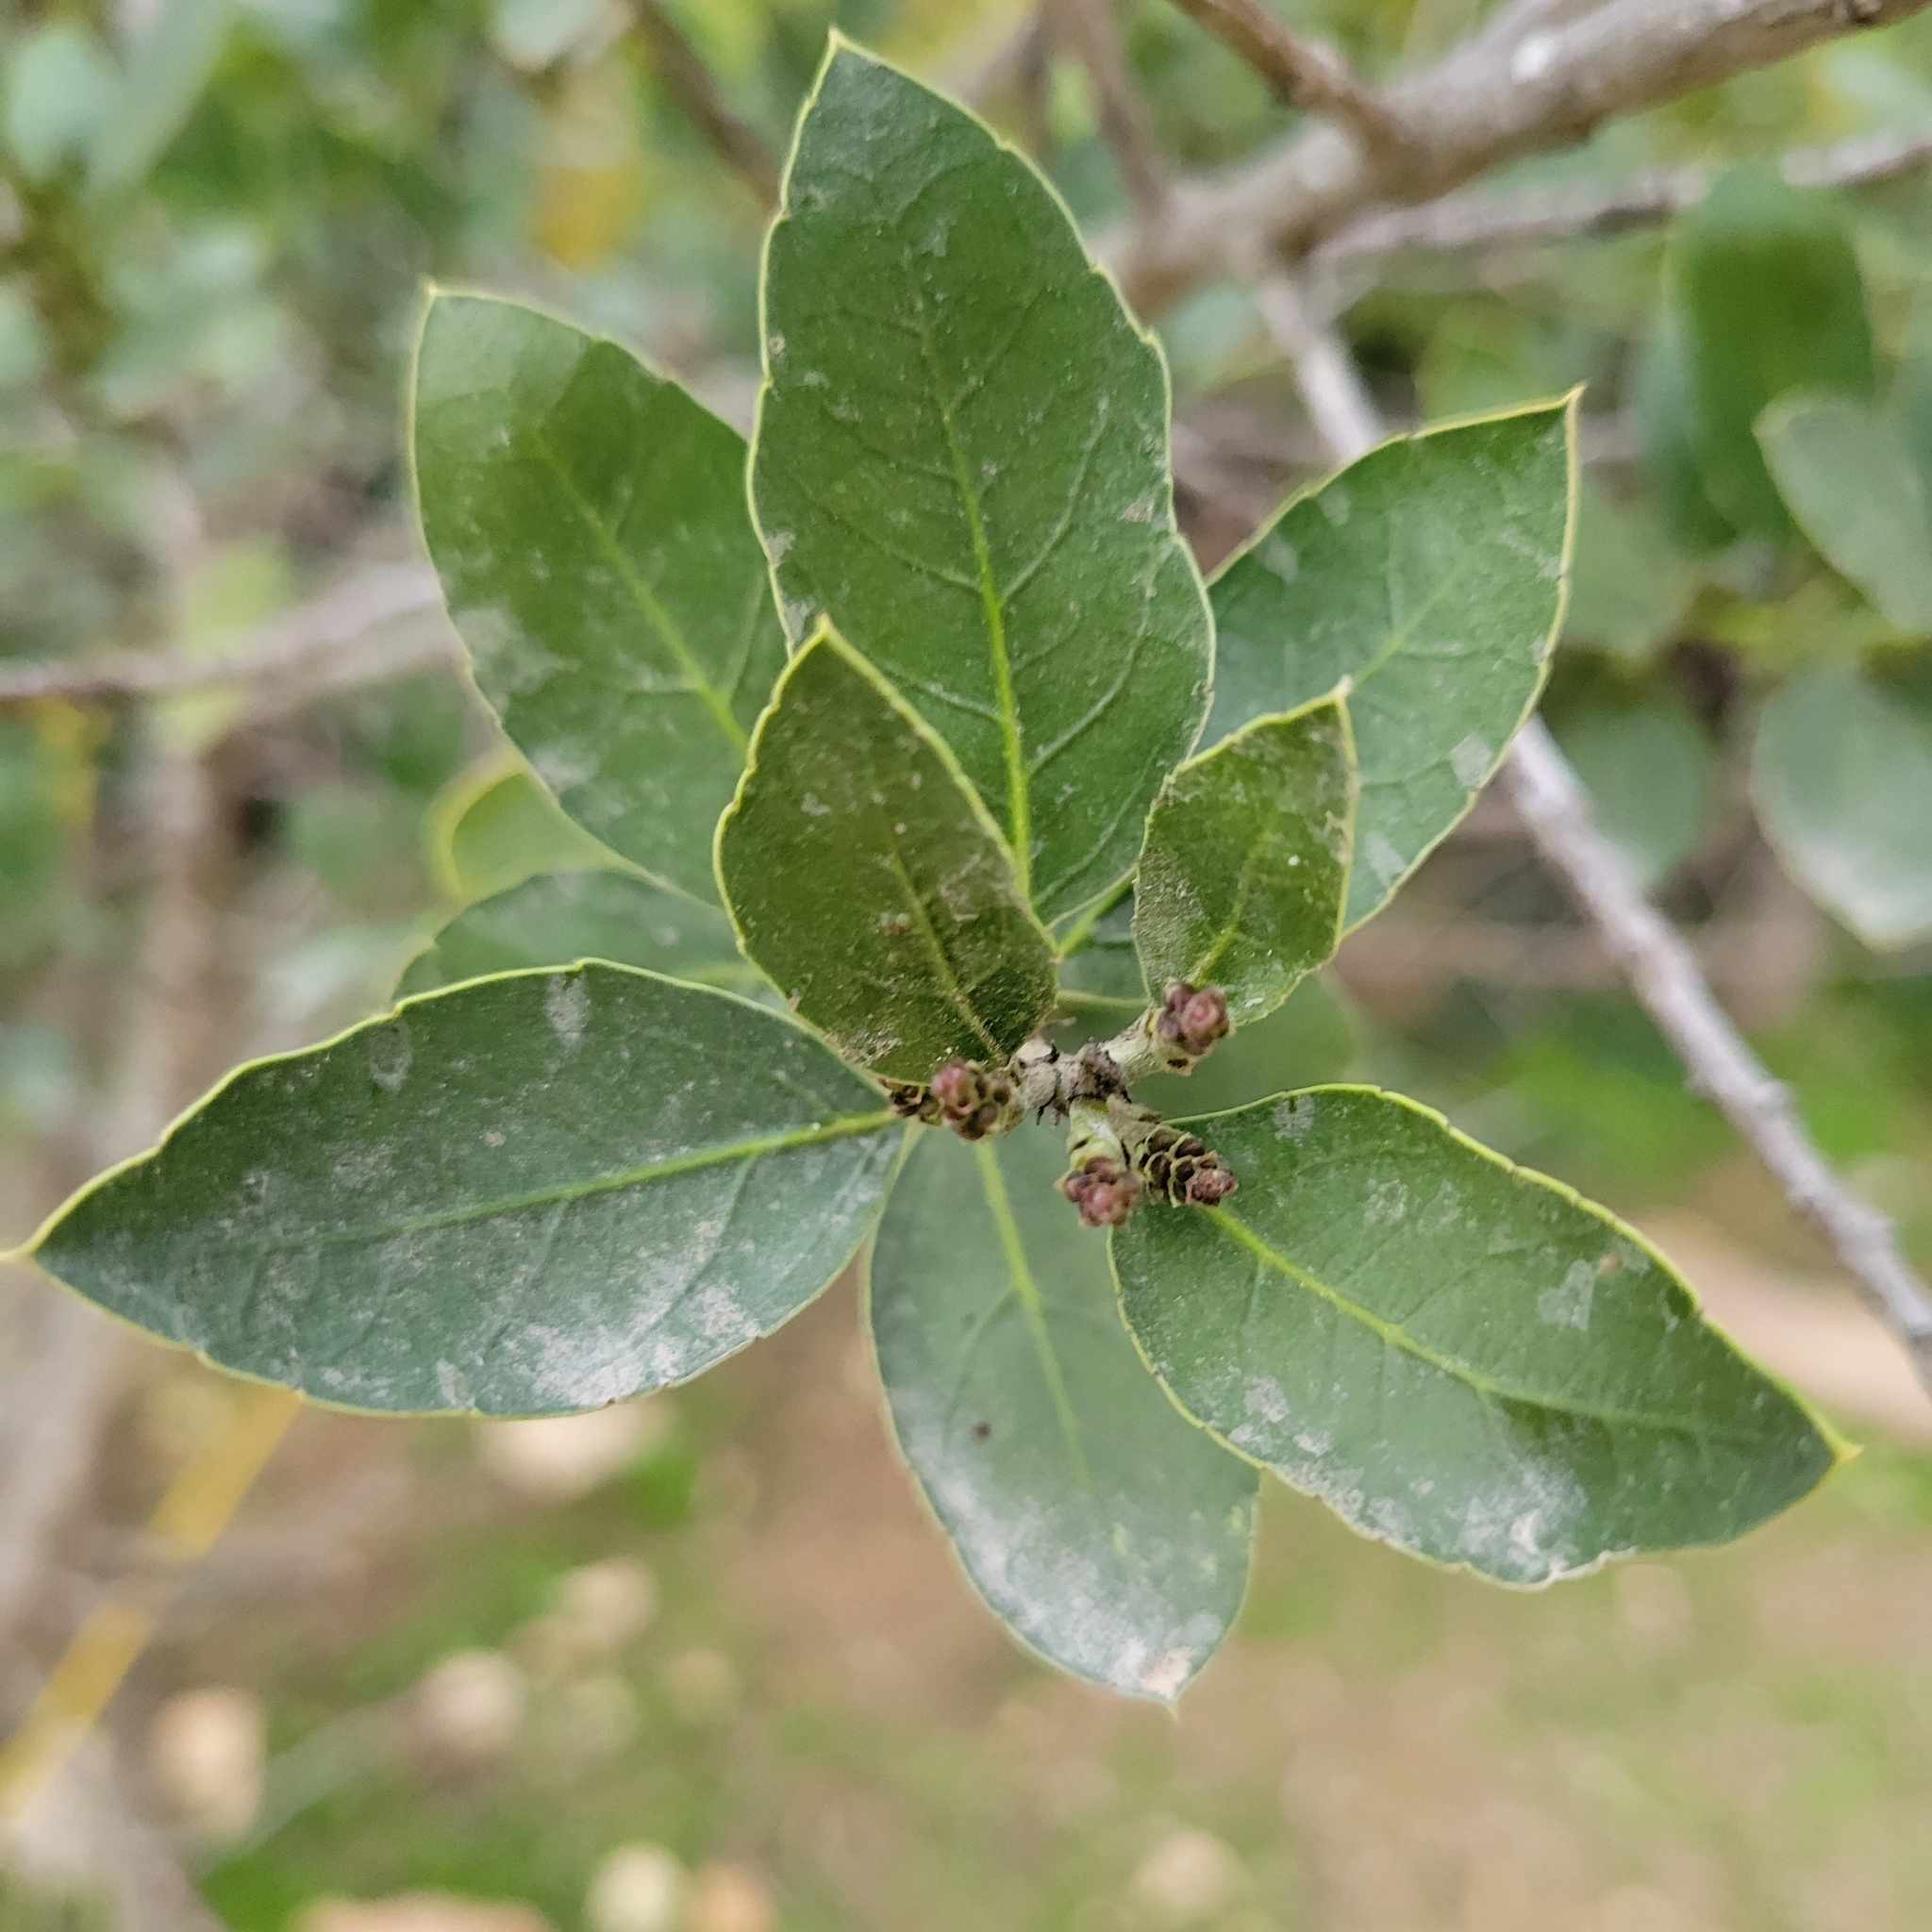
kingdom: Plantae
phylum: Tracheophyta
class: Magnoliopsida
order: Rosales
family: Rhamnaceae
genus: Rhamnus
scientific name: Rhamnus alaternus
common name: Mediterranean buckthorn
